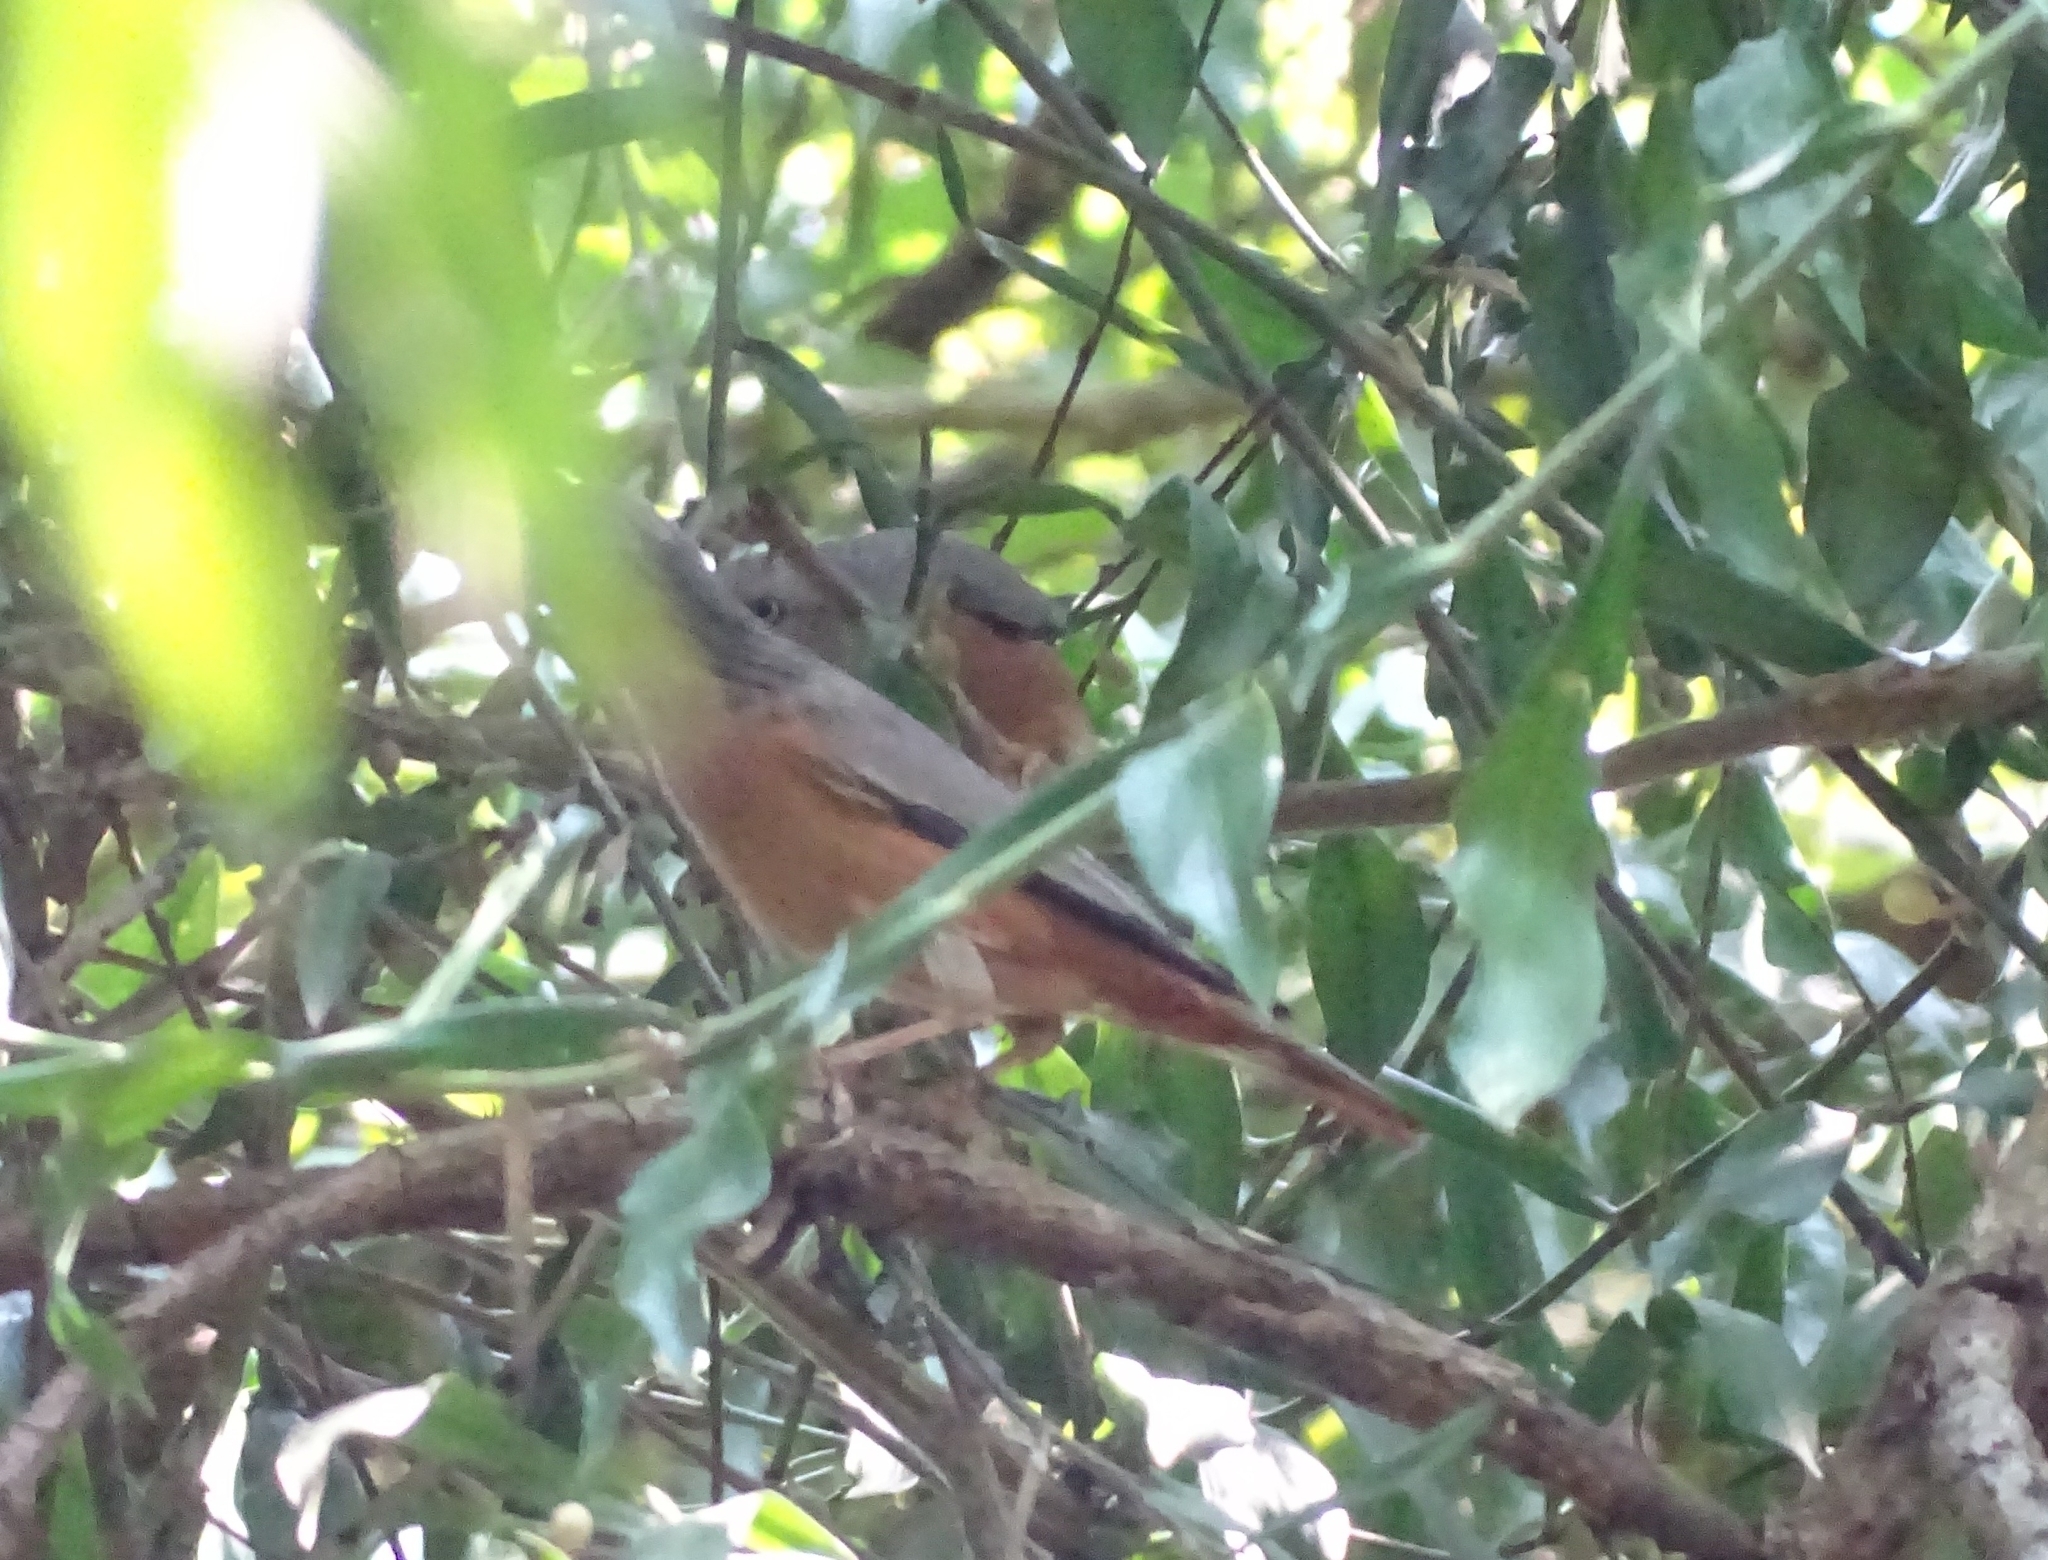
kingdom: Animalia
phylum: Chordata
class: Aves
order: Passeriformes
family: Sturnidae
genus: Sturnia
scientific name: Sturnia malabarica
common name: Chestnut-tailed starling
